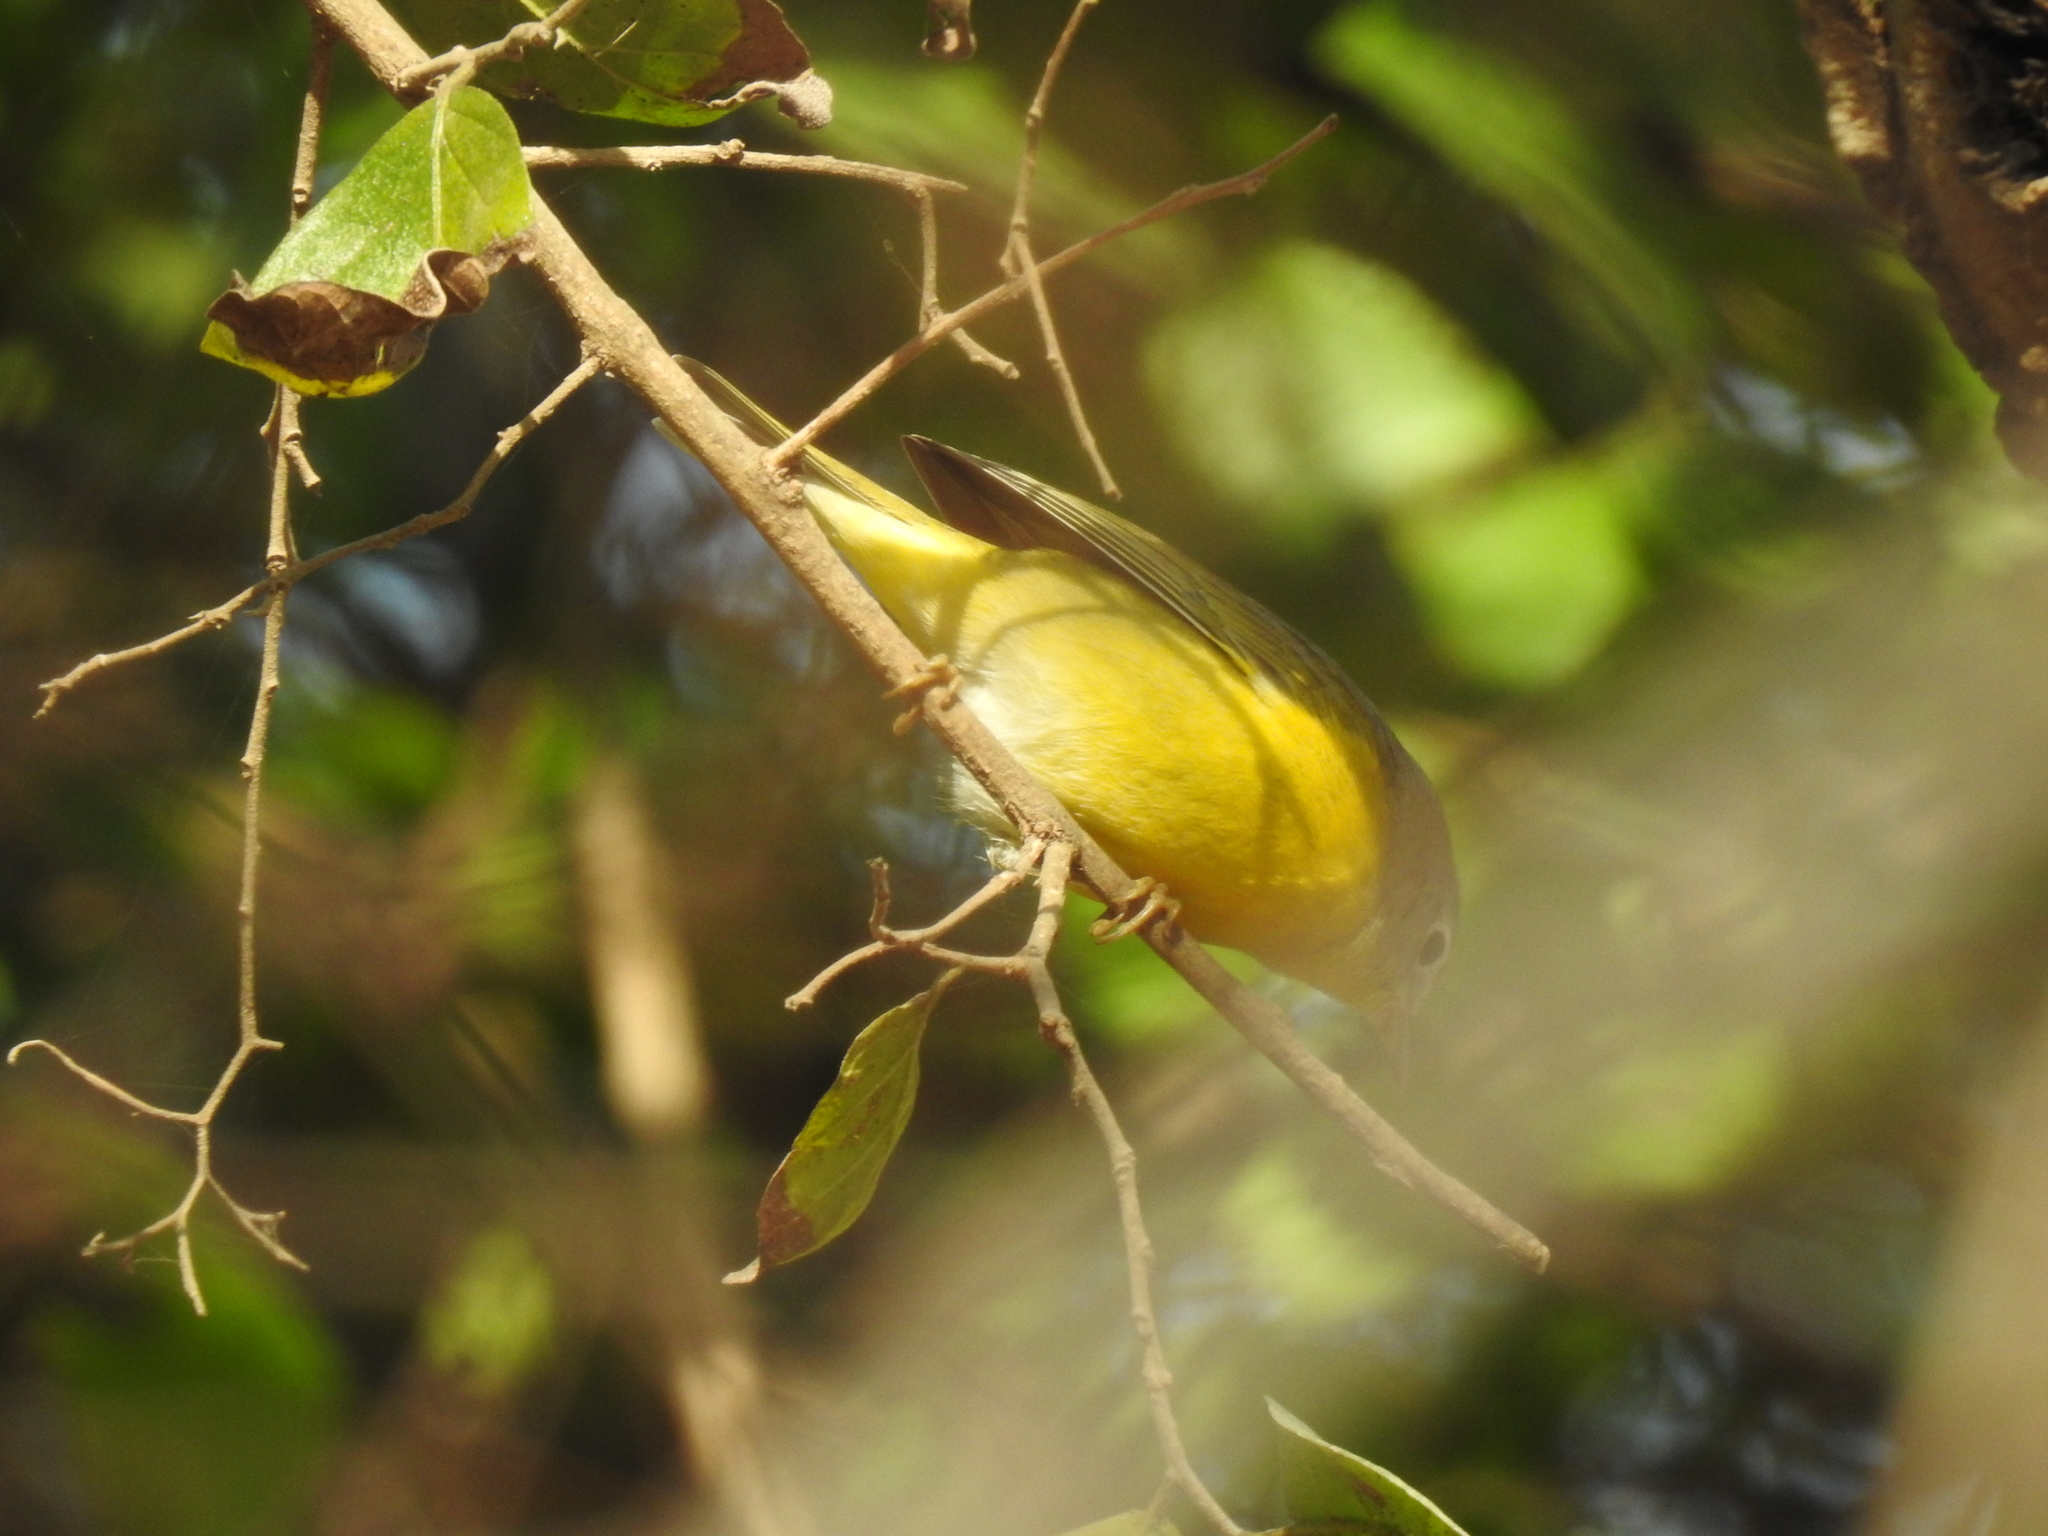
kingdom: Animalia
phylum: Chordata
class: Aves
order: Passeriformes
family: Parulidae
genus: Leiothlypis
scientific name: Leiothlypis ruficapilla
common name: Nashville warbler
